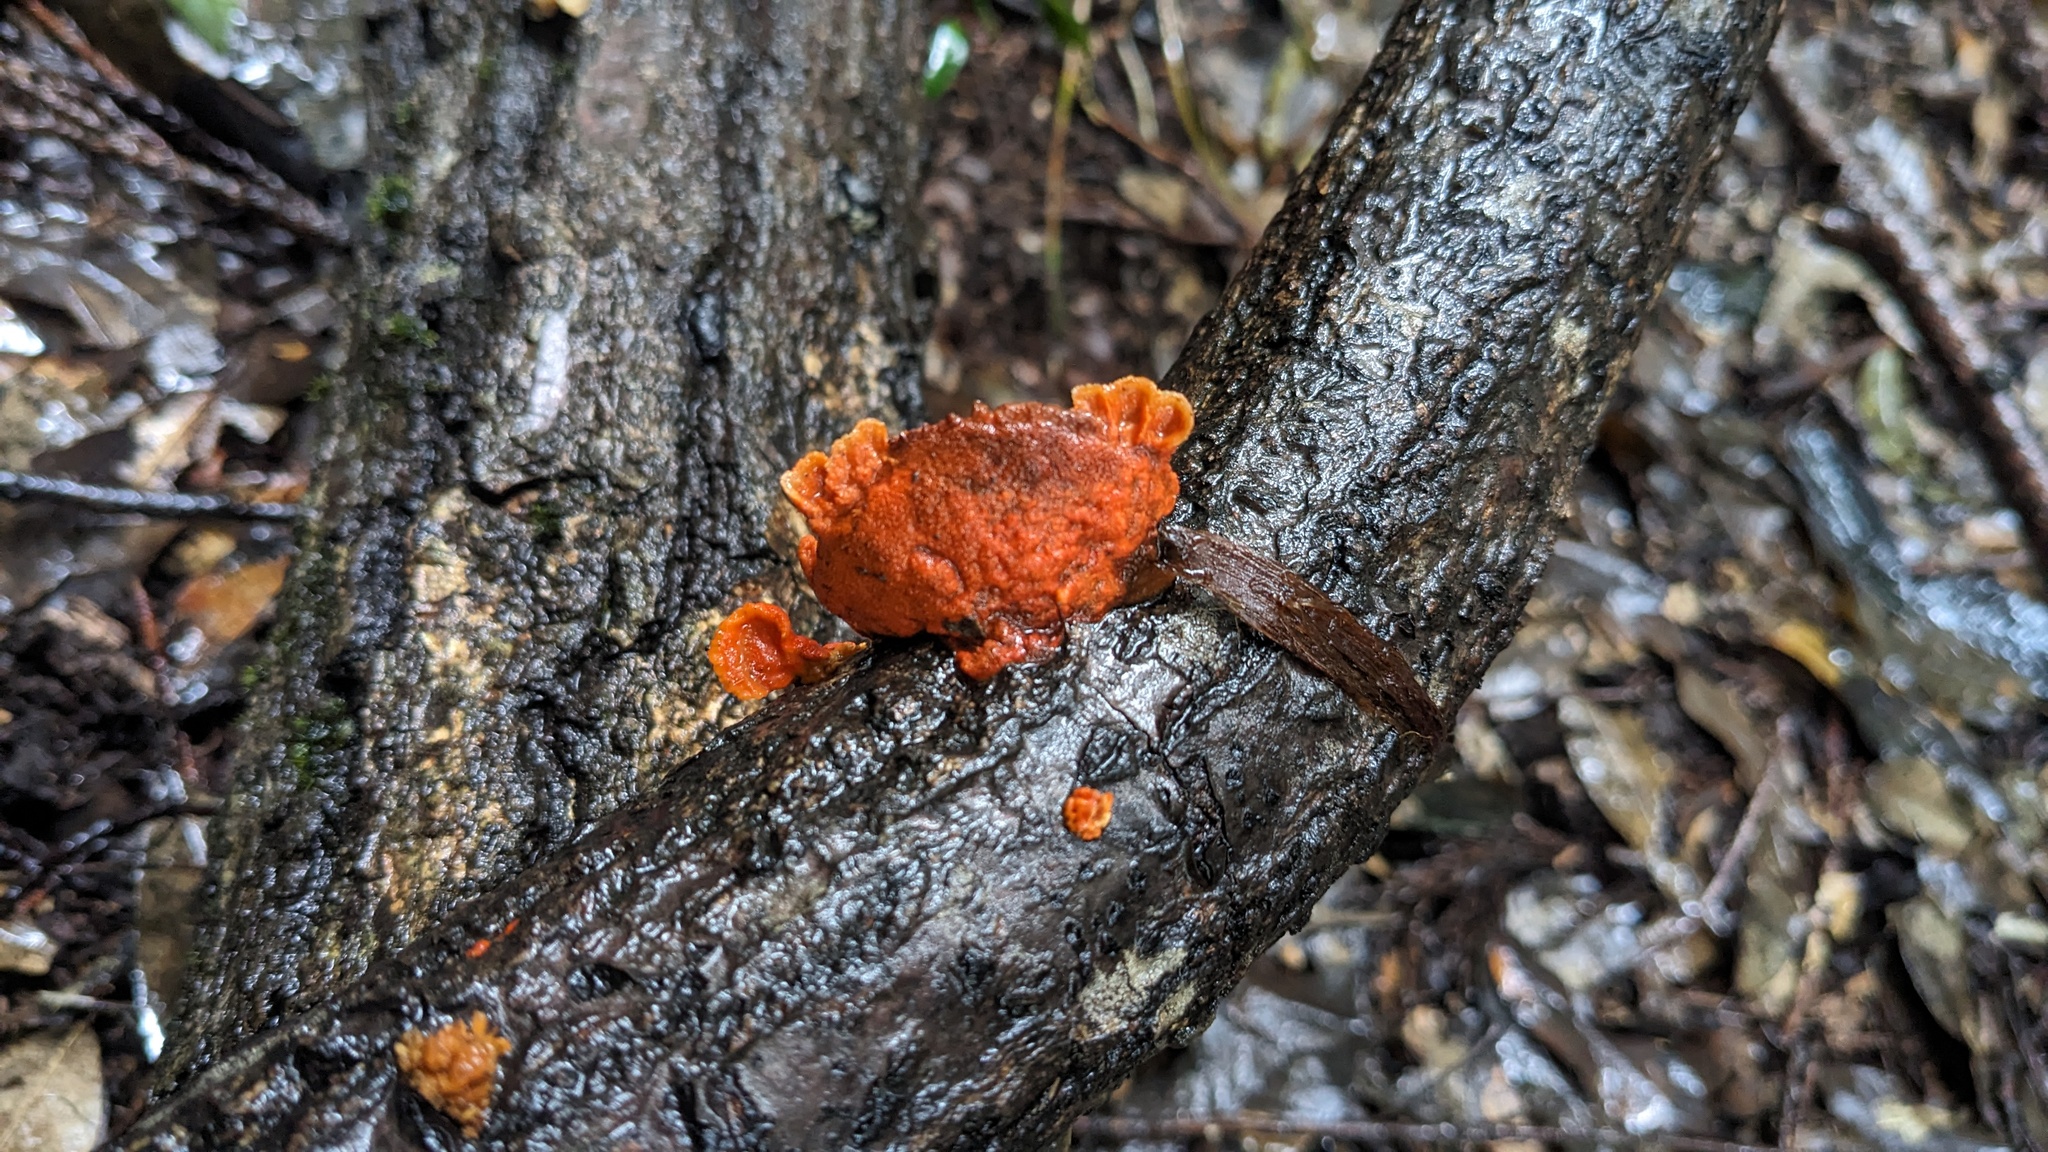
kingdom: Fungi
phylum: Basidiomycota
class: Agaricomycetes
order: Polyporales
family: Polyporaceae
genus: Trametes
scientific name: Trametes coccinea
